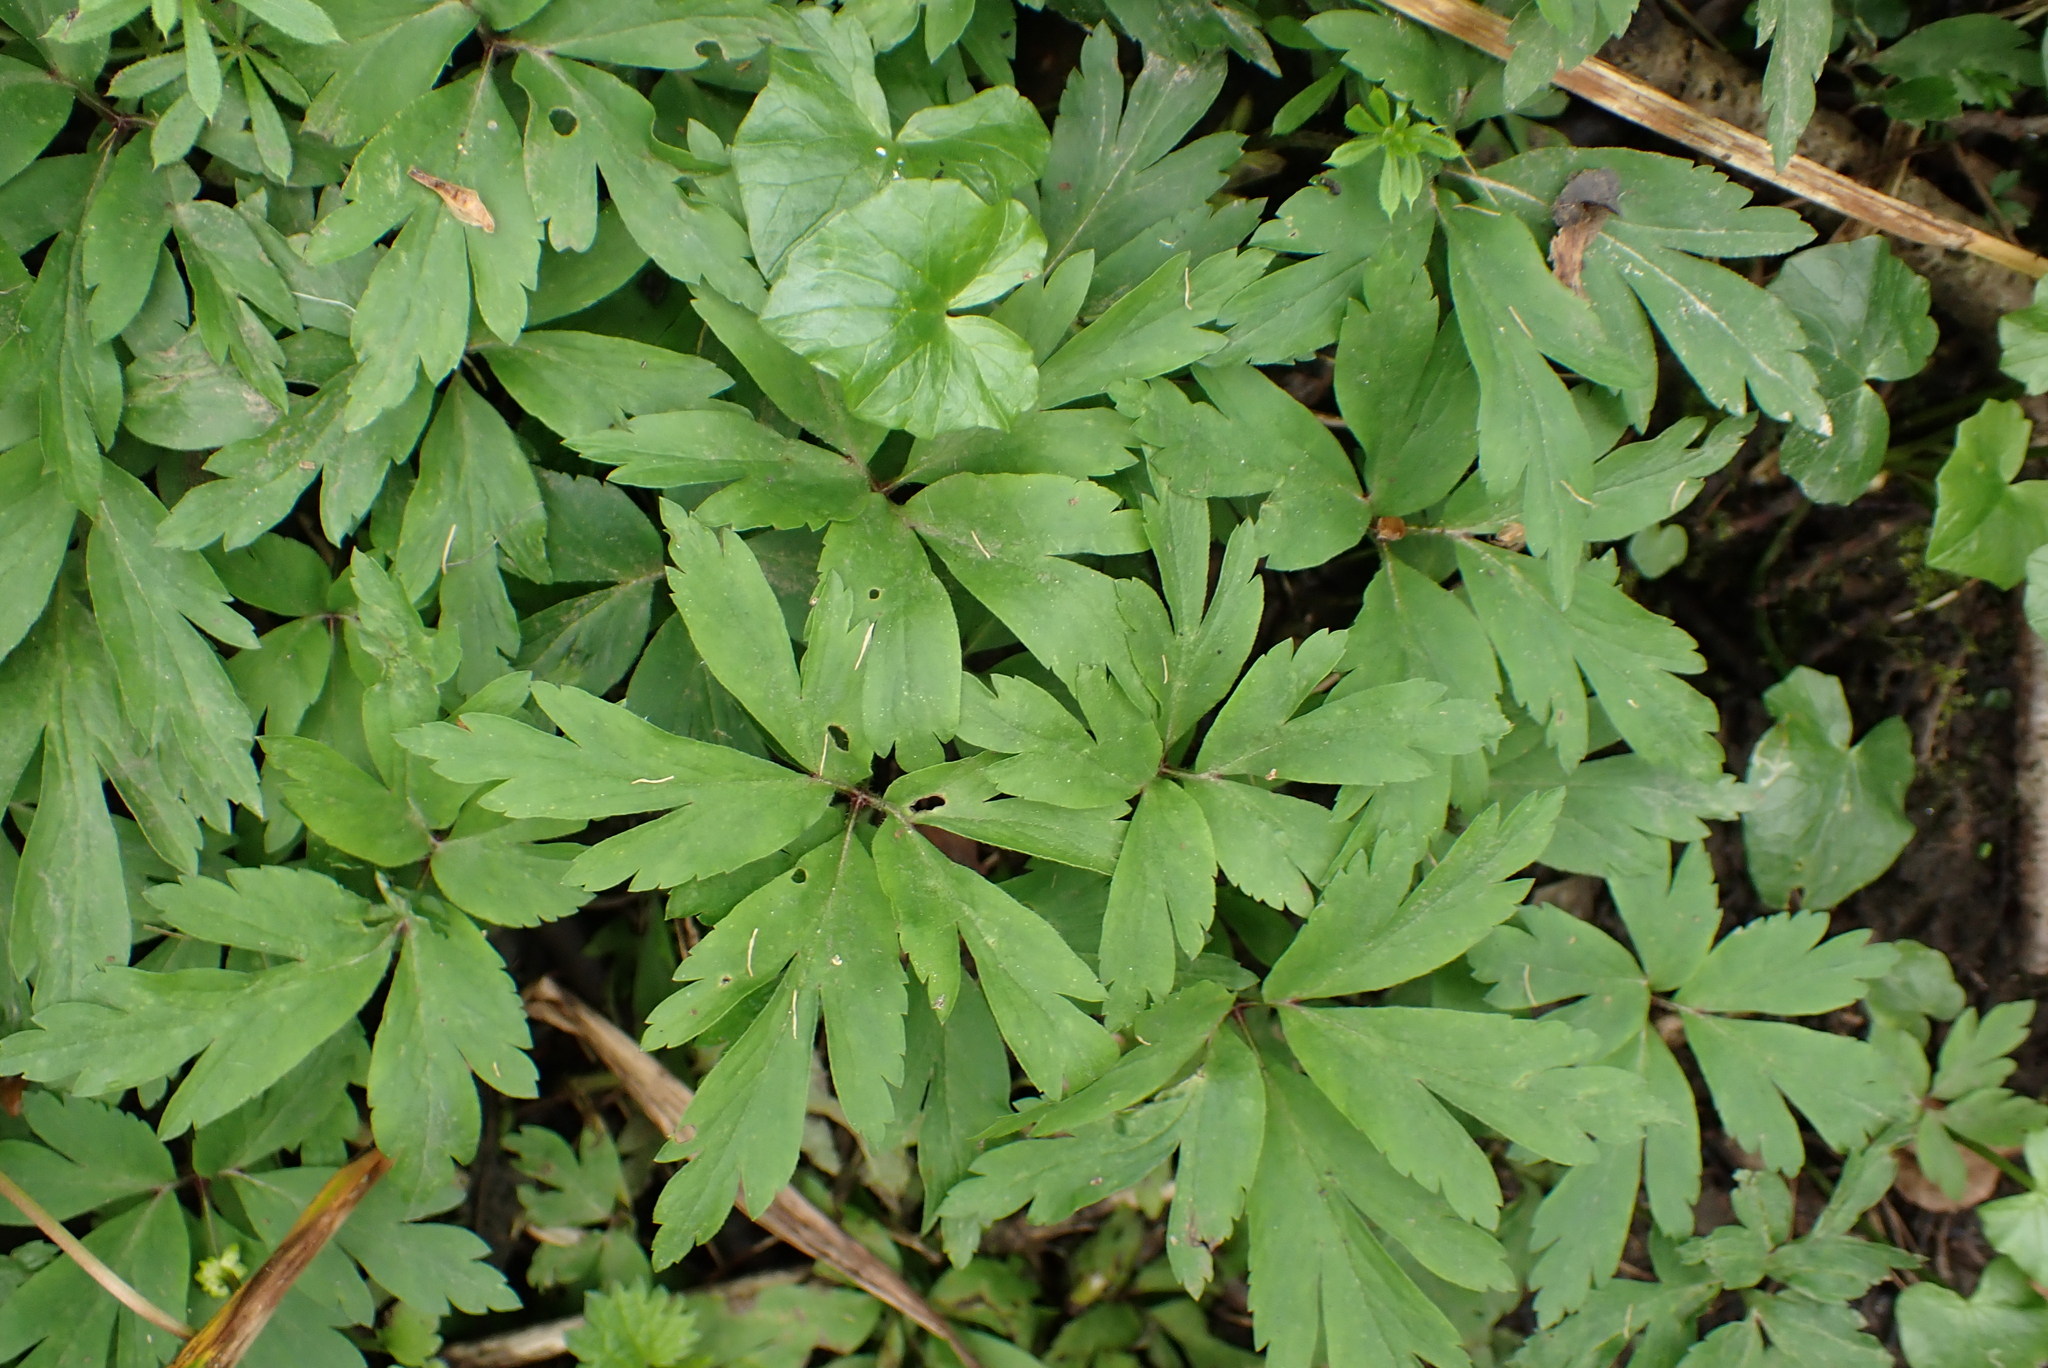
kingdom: Plantae
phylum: Tracheophyta
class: Magnoliopsida
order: Ranunculales
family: Ranunculaceae
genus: Anemone
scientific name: Anemone nemorosa
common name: Wood anemone
